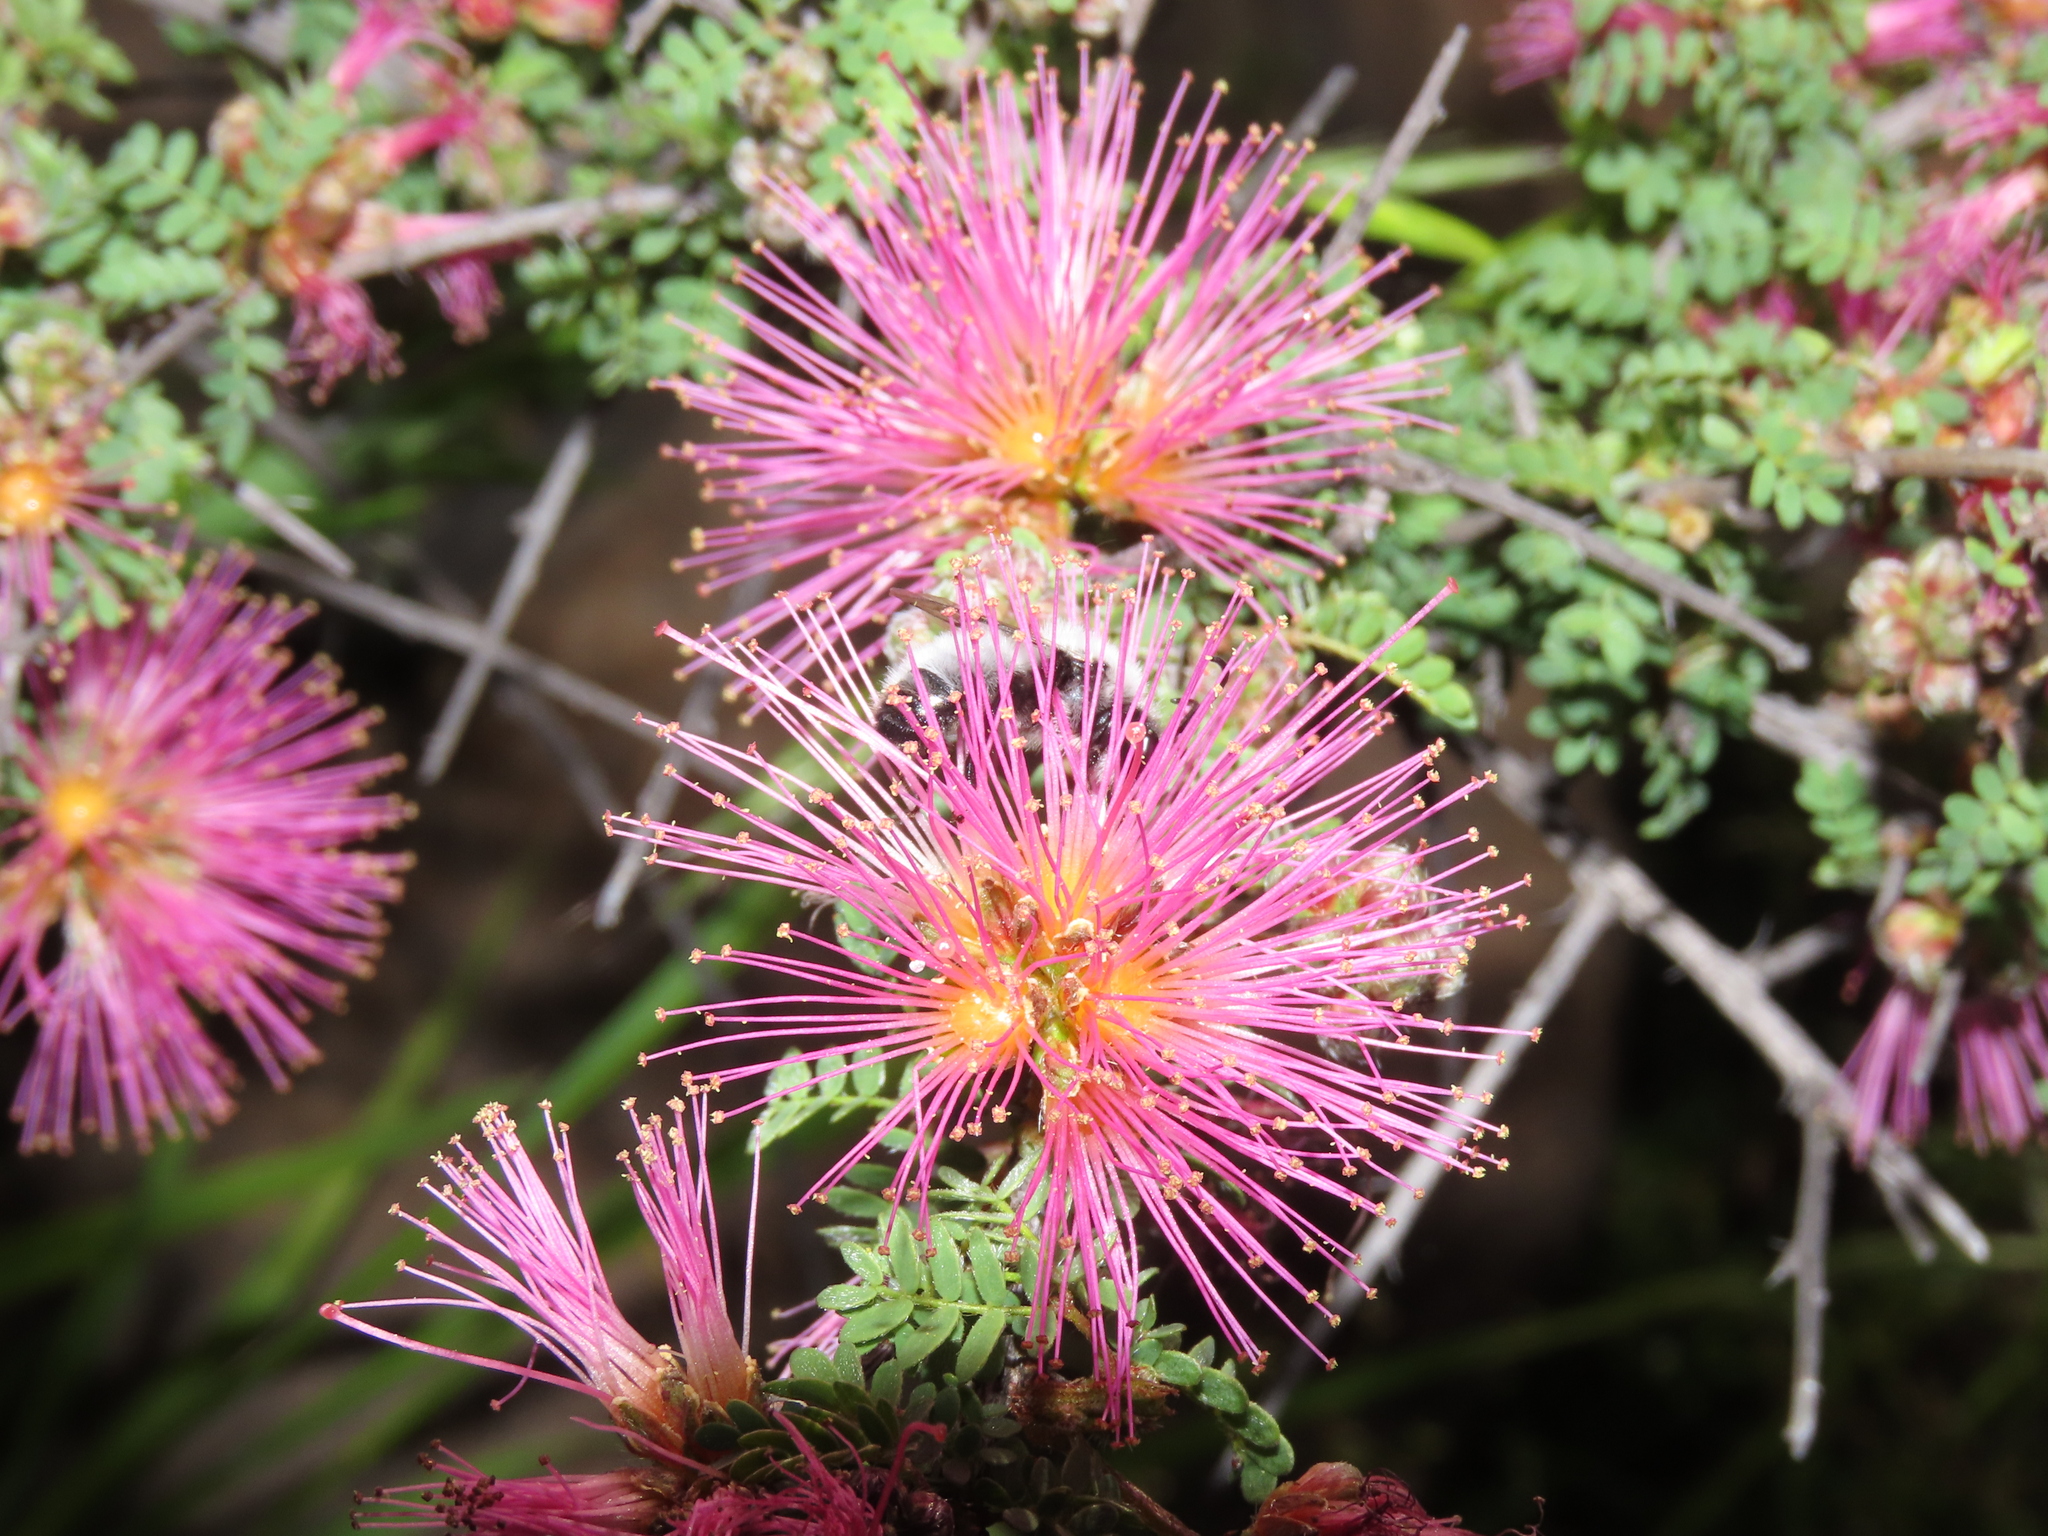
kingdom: Plantae
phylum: Tracheophyta
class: Magnoliopsida
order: Fabales
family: Fabaceae
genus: Calliandra
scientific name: Calliandra chilensis
